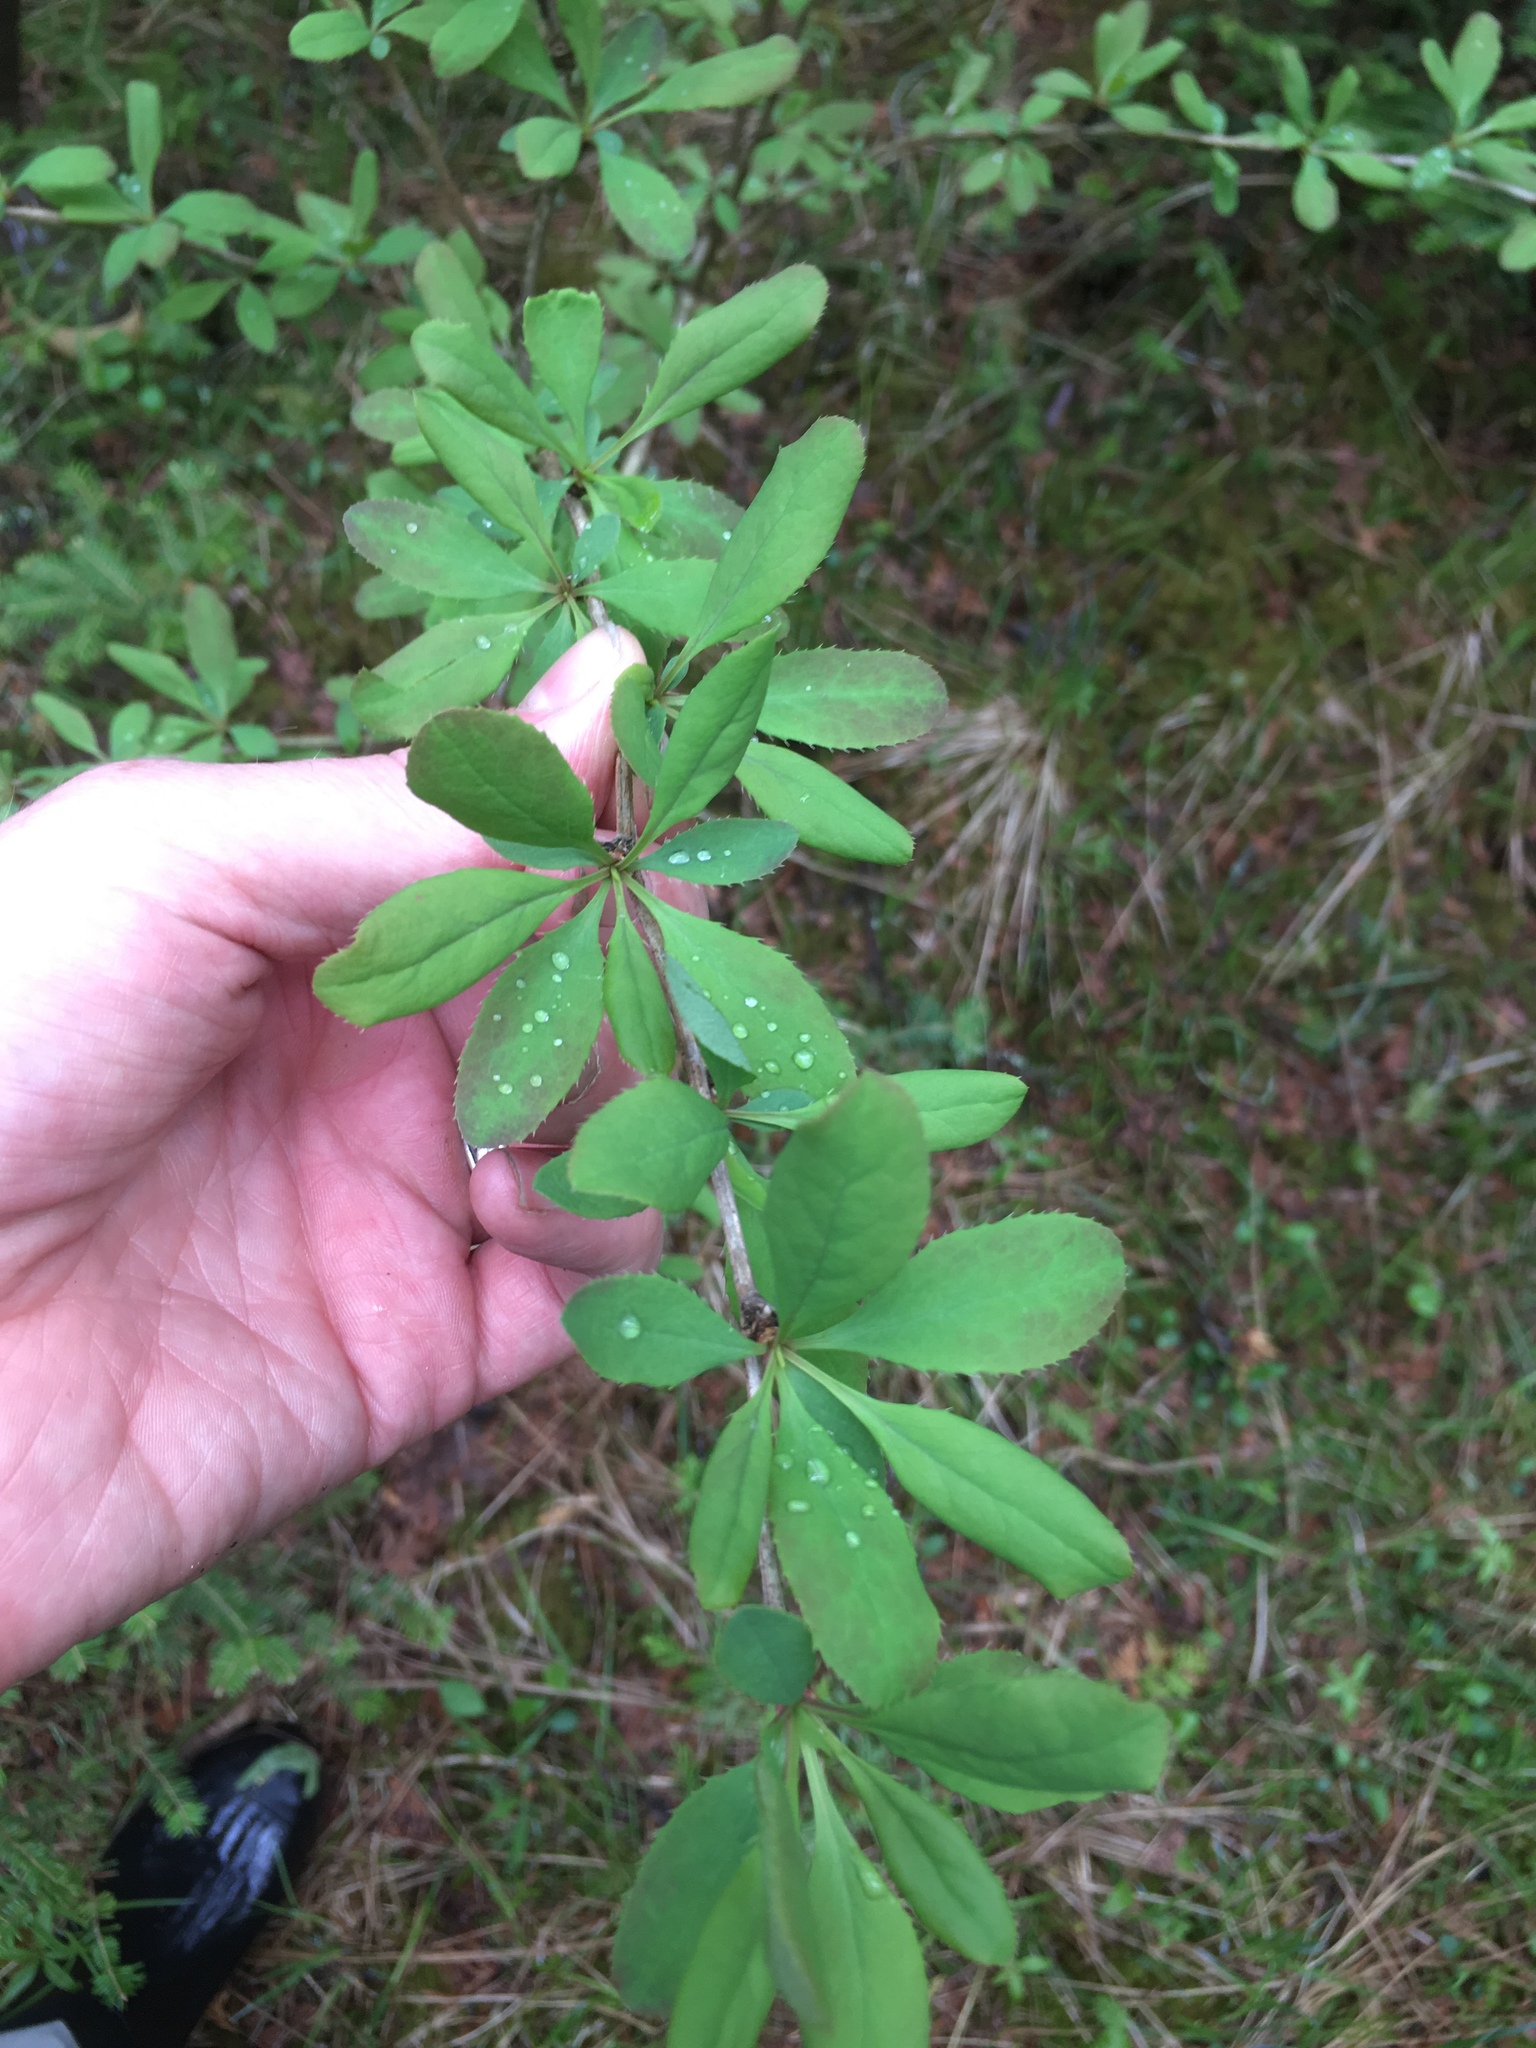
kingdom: Plantae
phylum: Tracheophyta
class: Magnoliopsida
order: Ranunculales
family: Berberidaceae
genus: Berberis
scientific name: Berberis vulgaris
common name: Barberry
